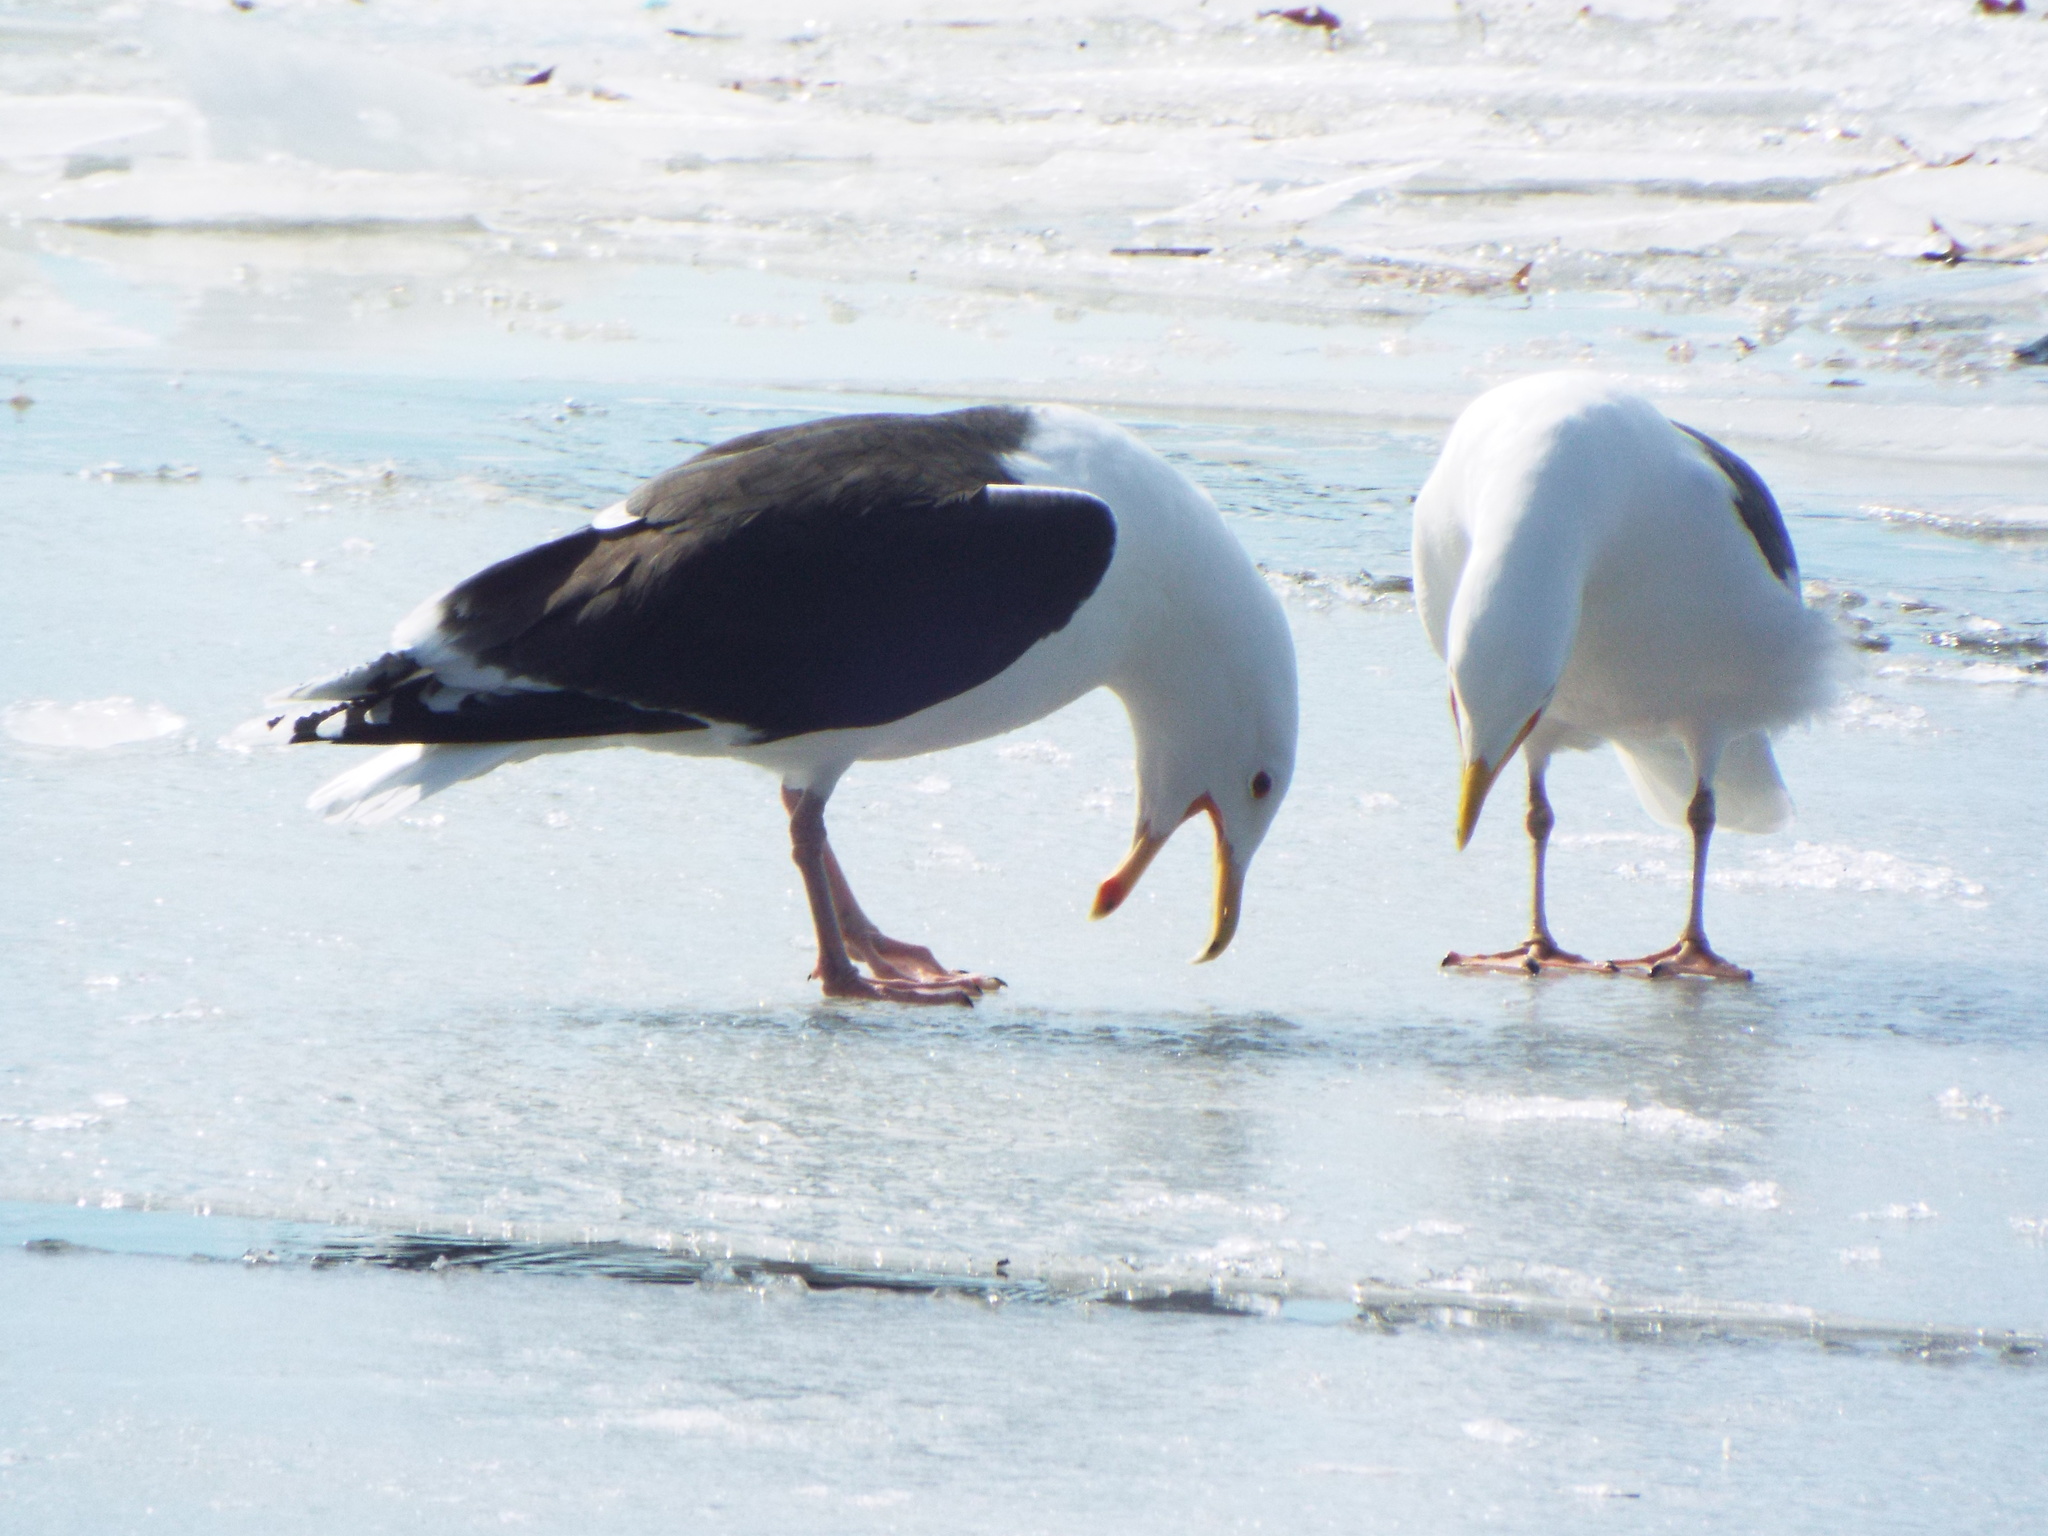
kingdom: Animalia
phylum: Chordata
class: Aves
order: Charadriiformes
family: Laridae
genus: Larus
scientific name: Larus marinus
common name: Great black-backed gull
